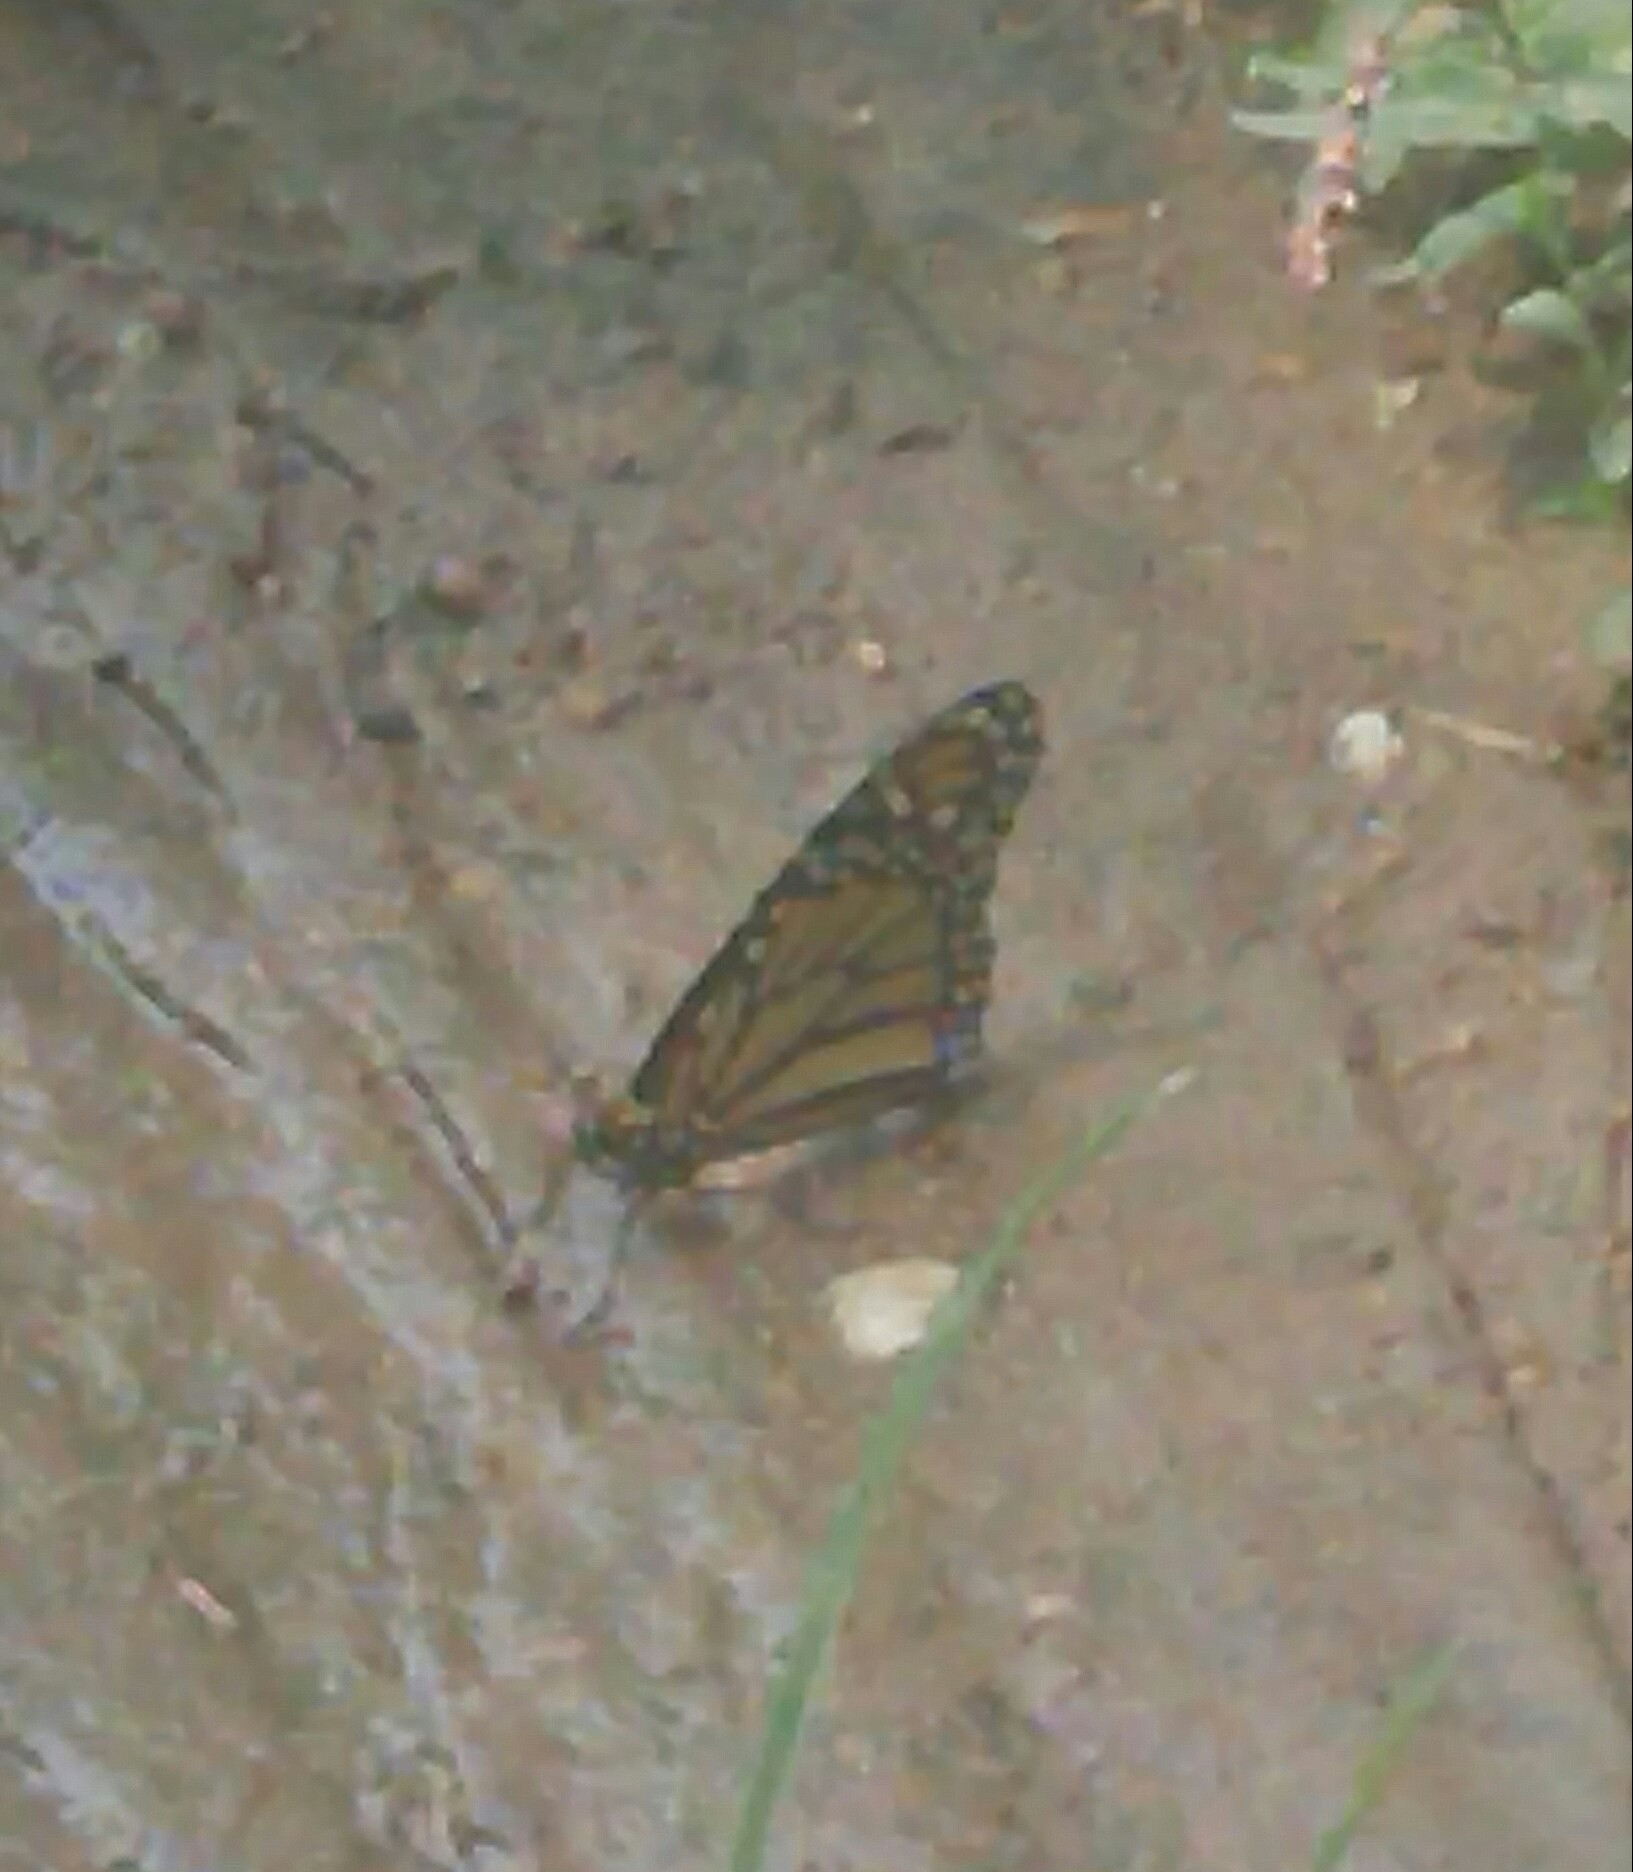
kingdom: Animalia
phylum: Arthropoda
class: Insecta
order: Lepidoptera
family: Nymphalidae
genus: Danaus
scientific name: Danaus plexippus
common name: Monarch
